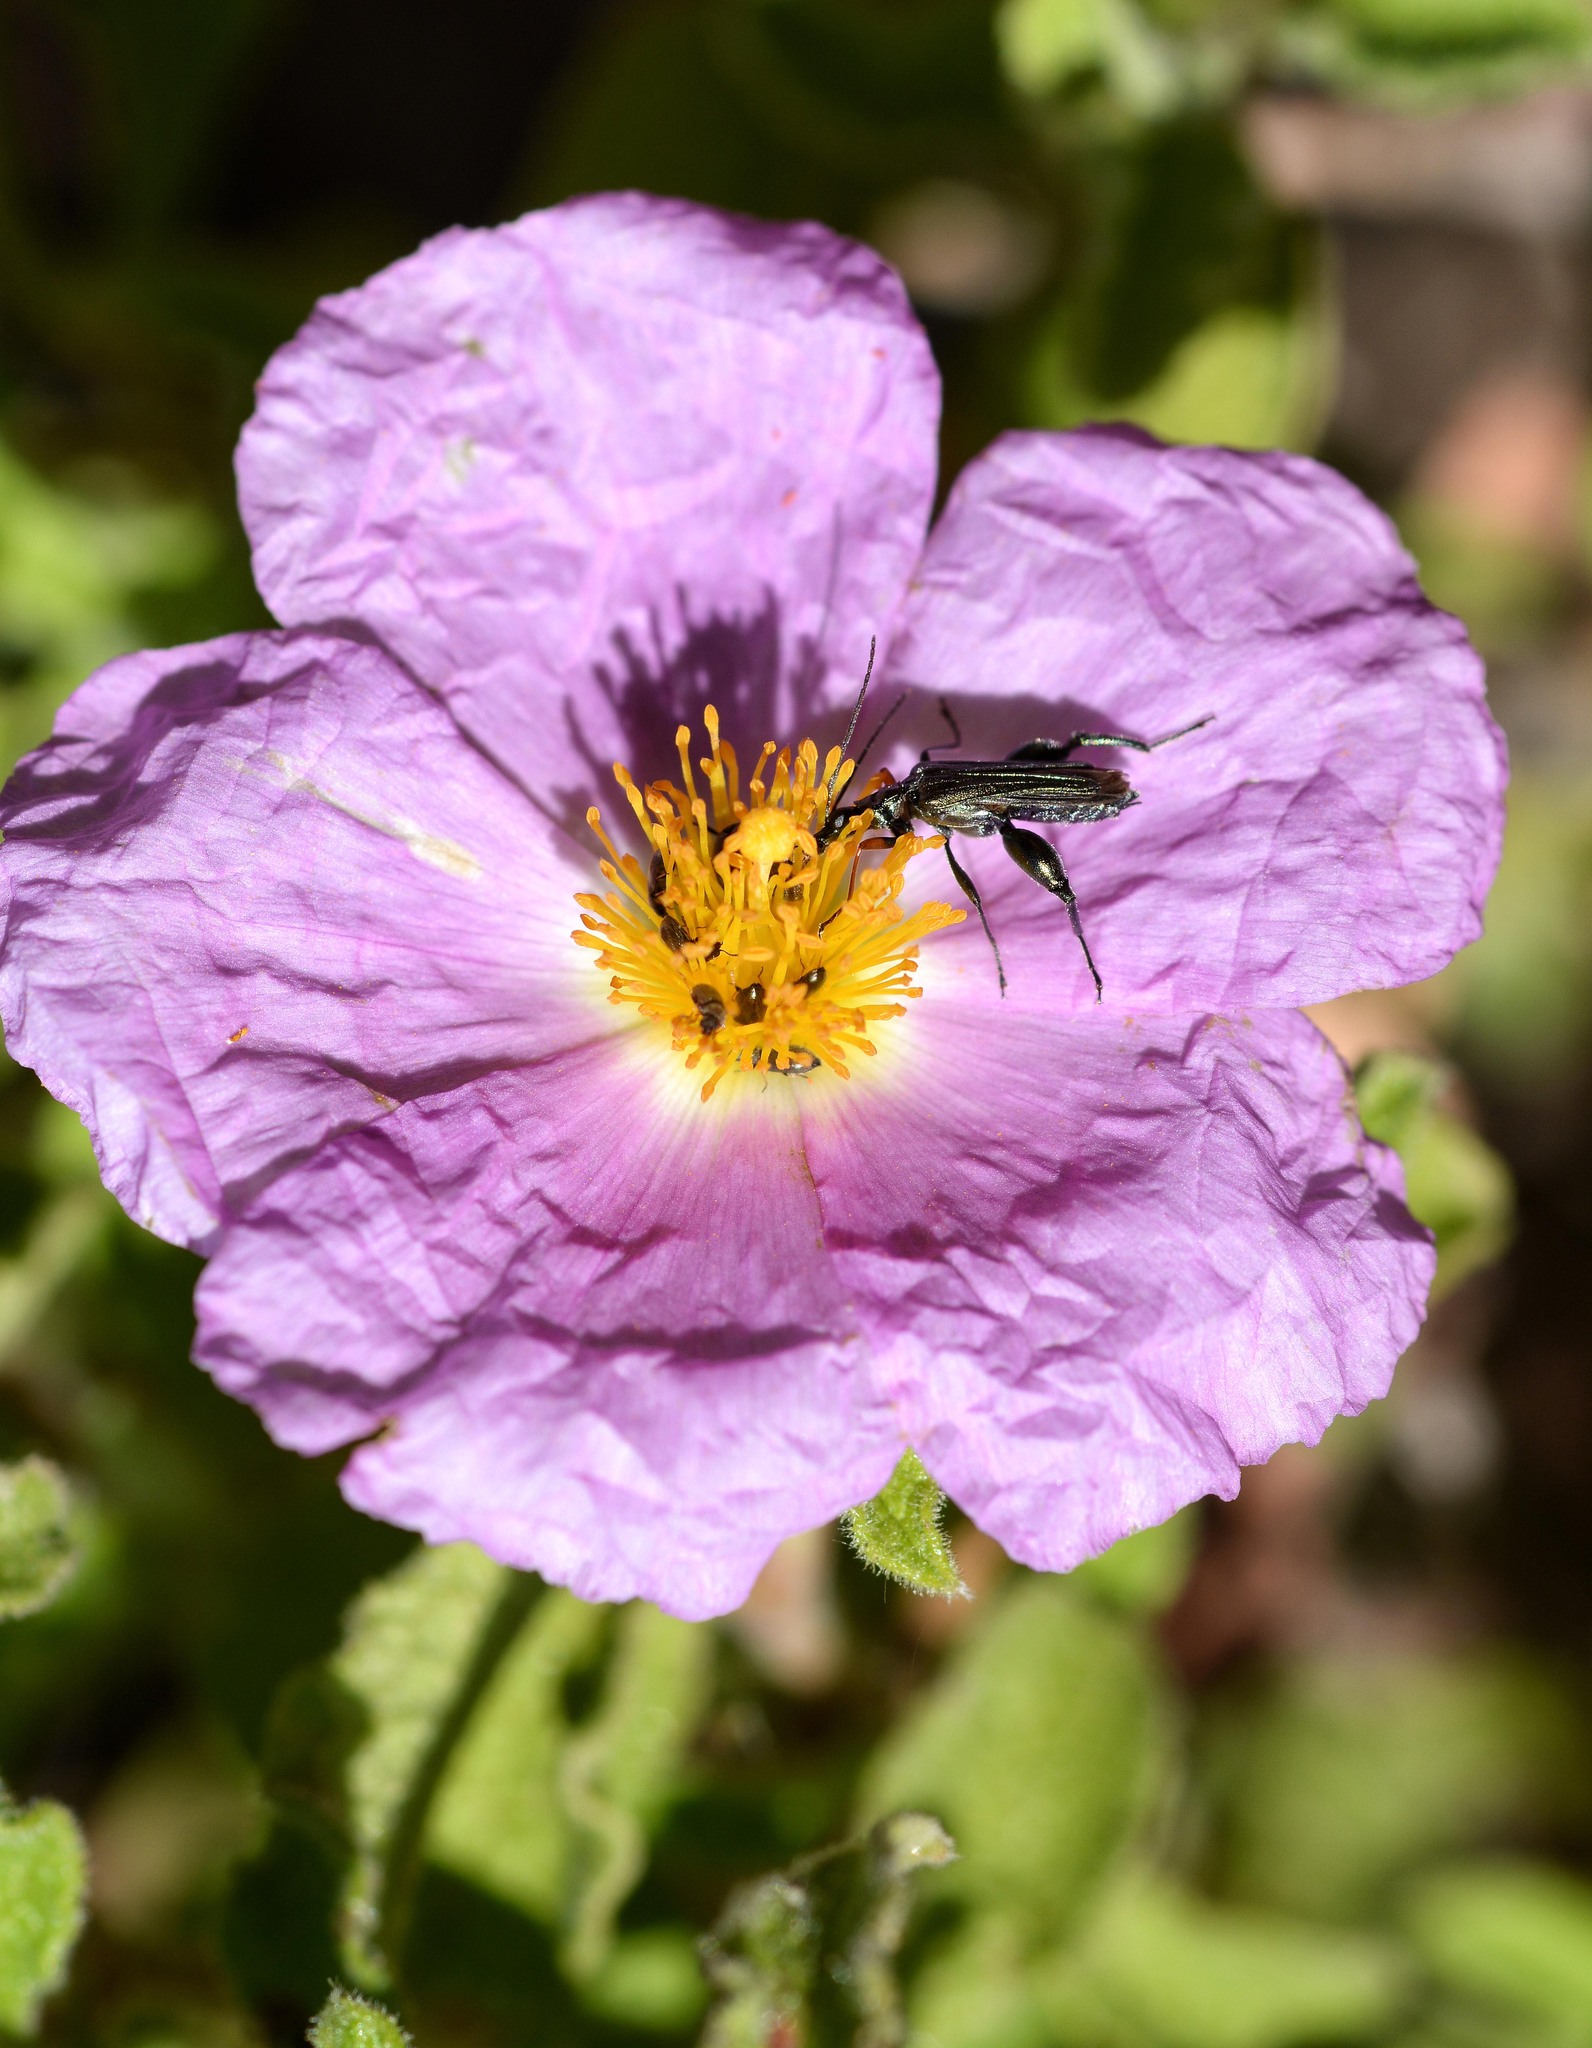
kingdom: Animalia
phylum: Arthropoda
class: Insecta
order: Coleoptera
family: Oedemeridae
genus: Oedemera
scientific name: Oedemera flavipes
